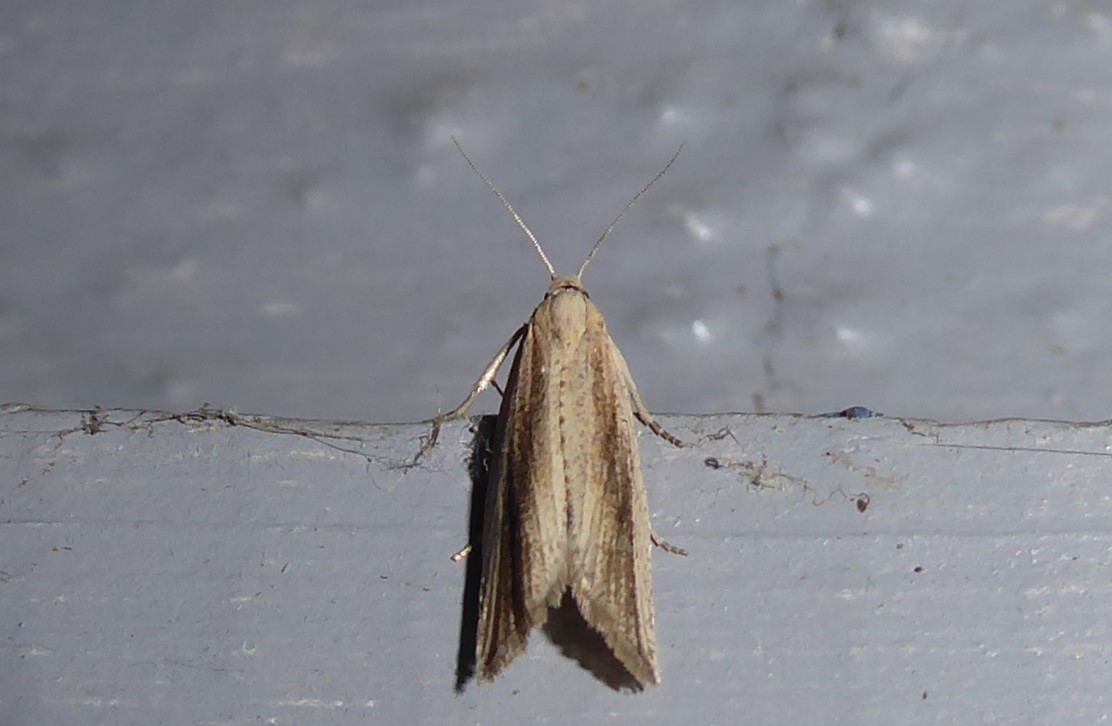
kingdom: Animalia
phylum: Arthropoda
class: Insecta
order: Lepidoptera
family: Tortricidae
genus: Bactra
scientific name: Bactra noteraula
